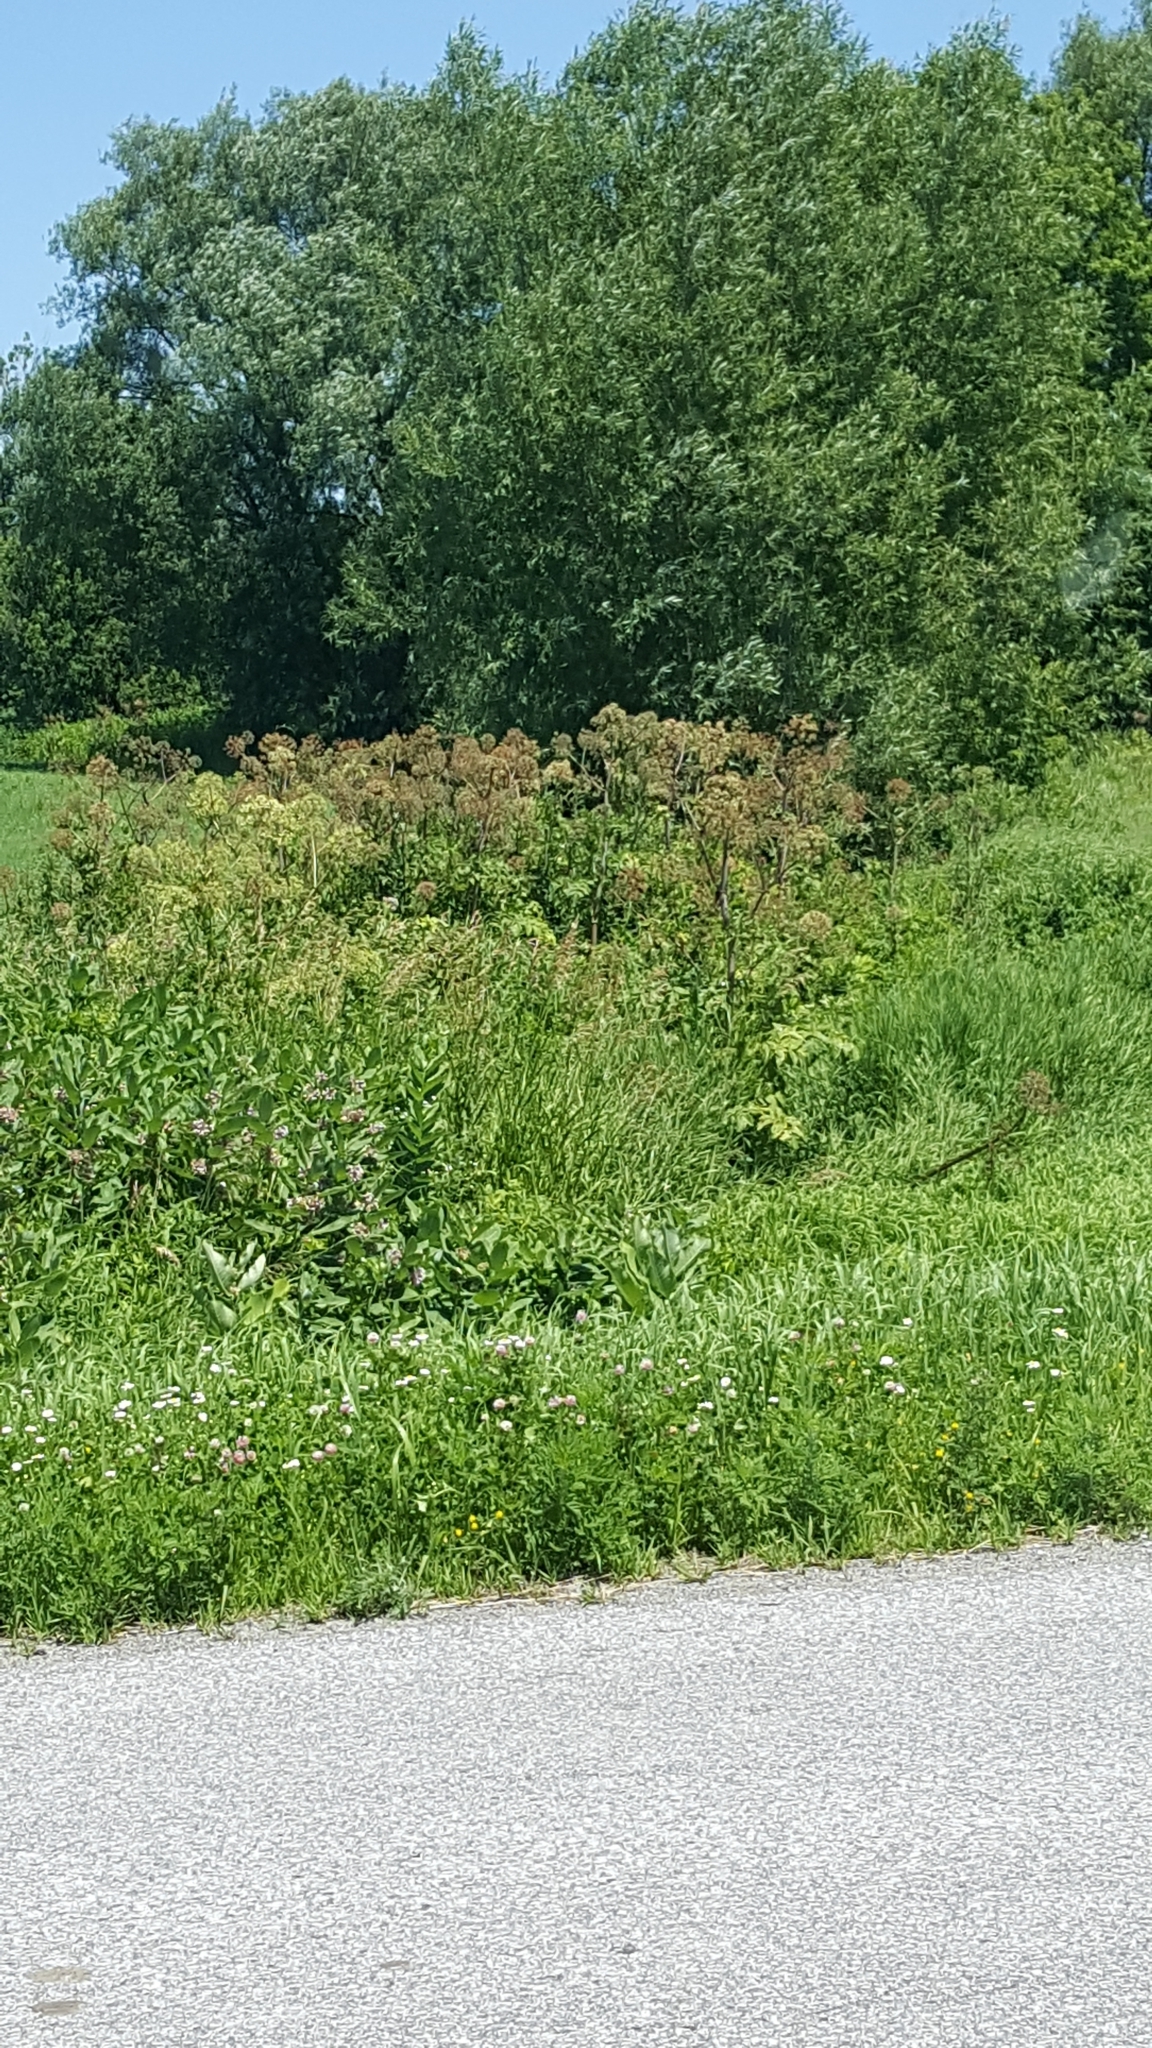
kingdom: Plantae
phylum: Tracheophyta
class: Magnoliopsida
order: Apiales
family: Apiaceae
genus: Angelica
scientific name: Angelica atropurpurea
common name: Great angelica
